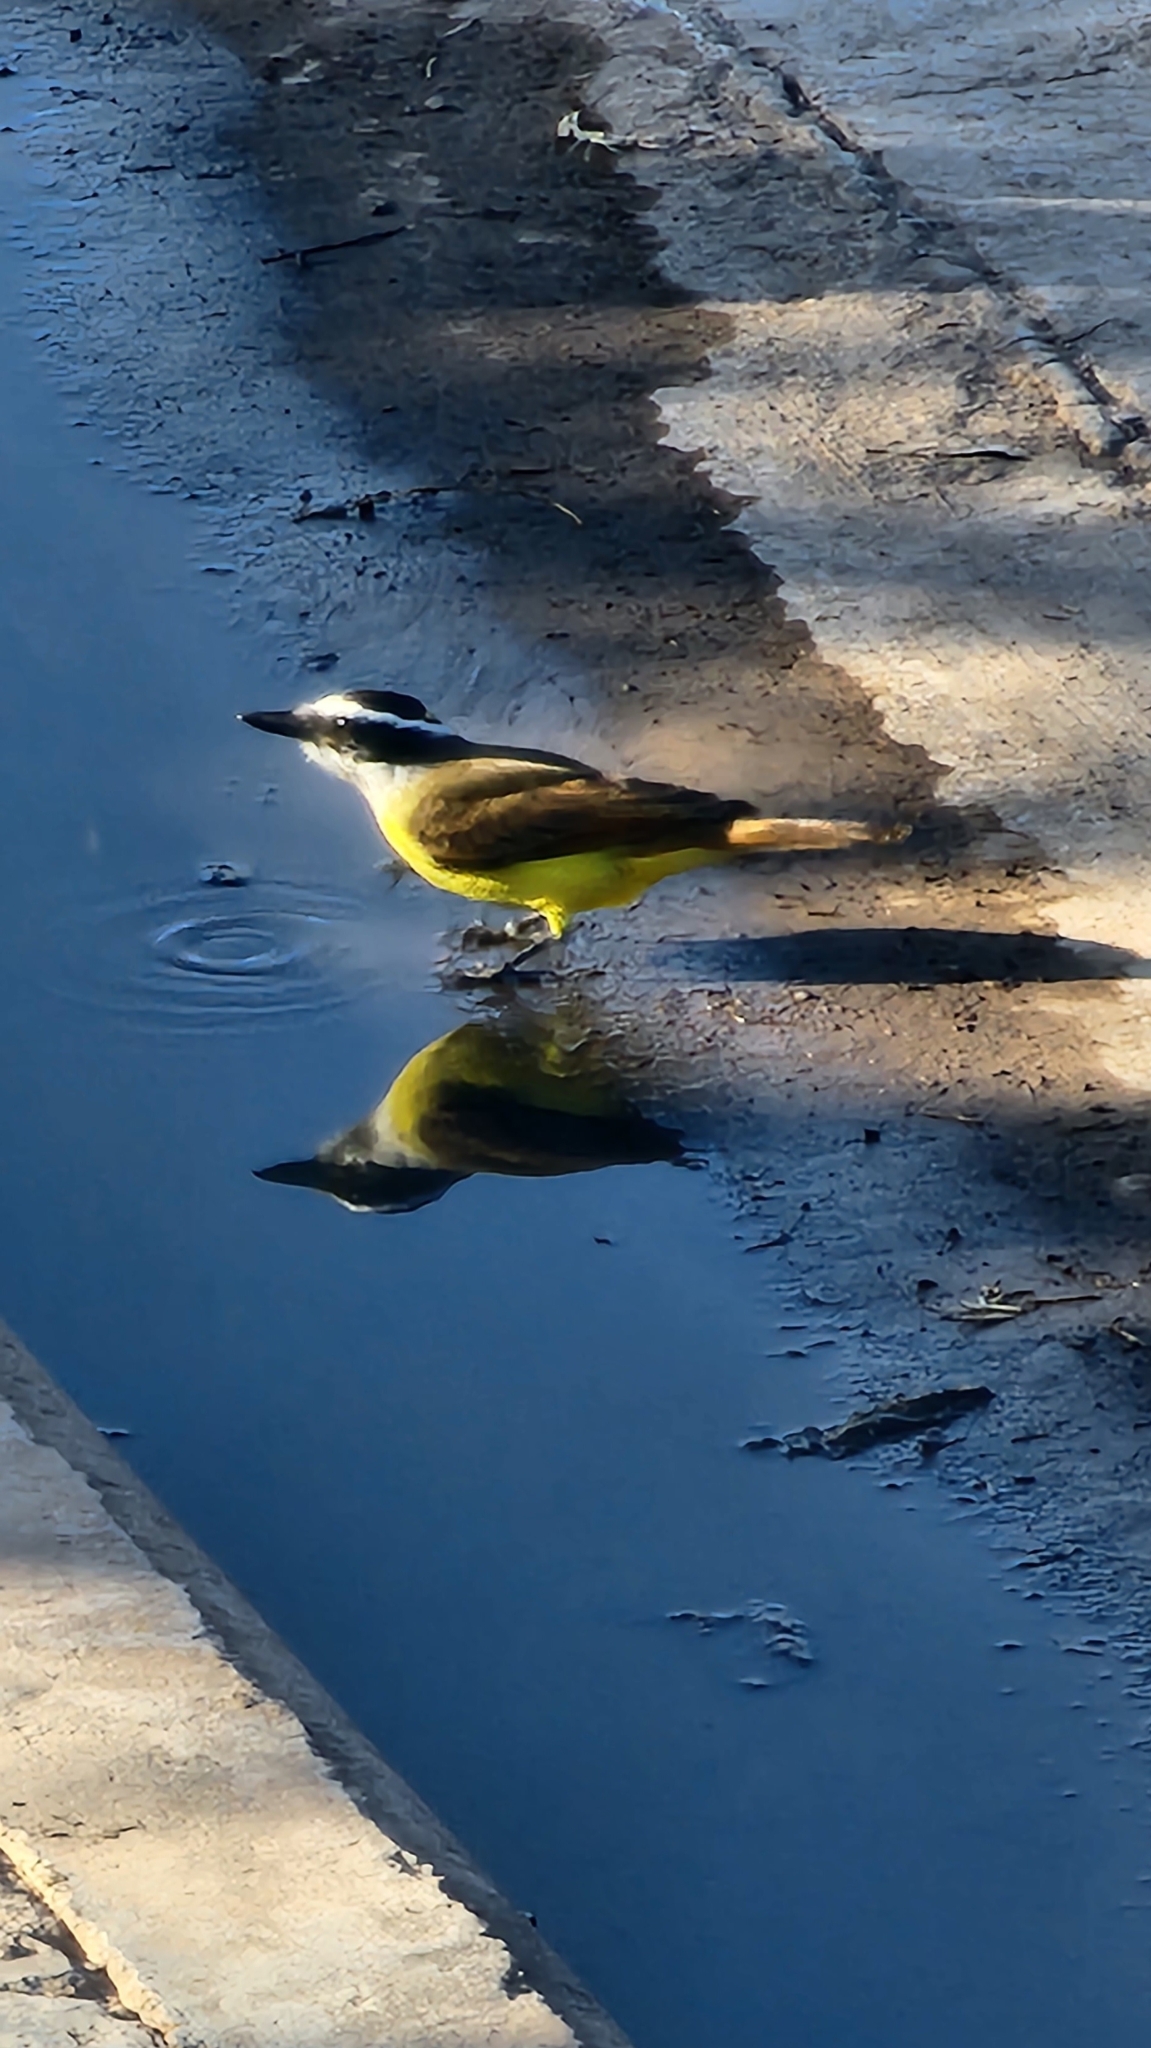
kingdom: Animalia
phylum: Chordata
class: Aves
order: Passeriformes
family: Tyrannidae
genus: Pitangus
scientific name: Pitangus sulphuratus
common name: Great kiskadee
